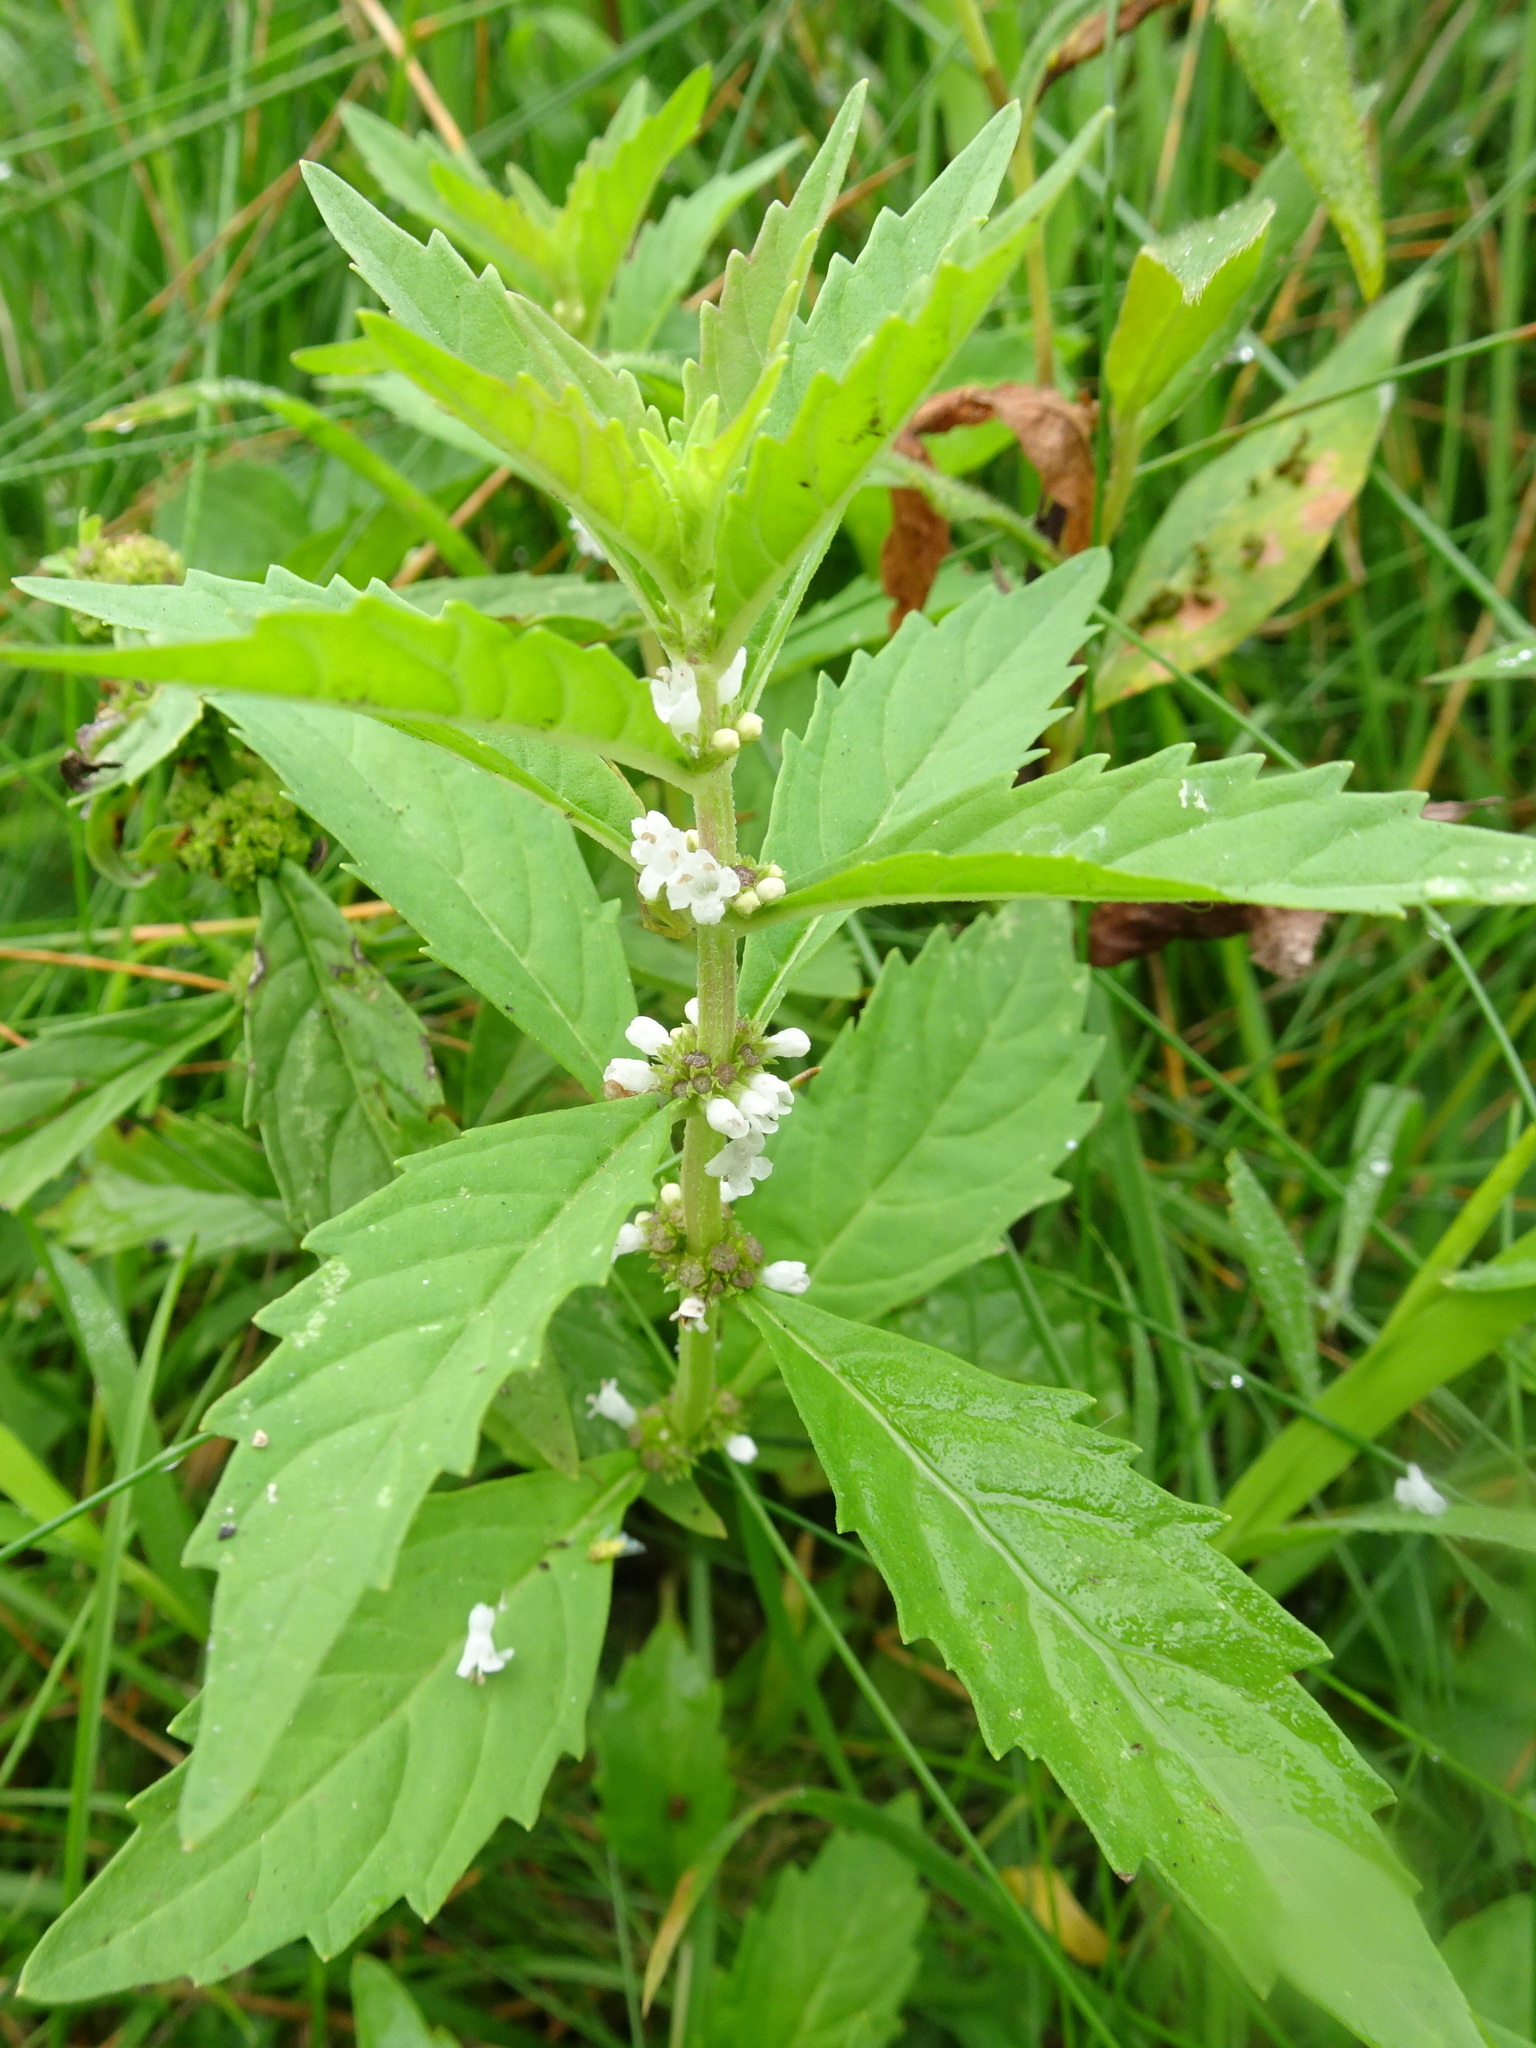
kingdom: Plantae
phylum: Tracheophyta
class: Magnoliopsida
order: Lamiales
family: Lamiaceae
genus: Lycopus
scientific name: Lycopus uniflorus
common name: Northern bugleweed
